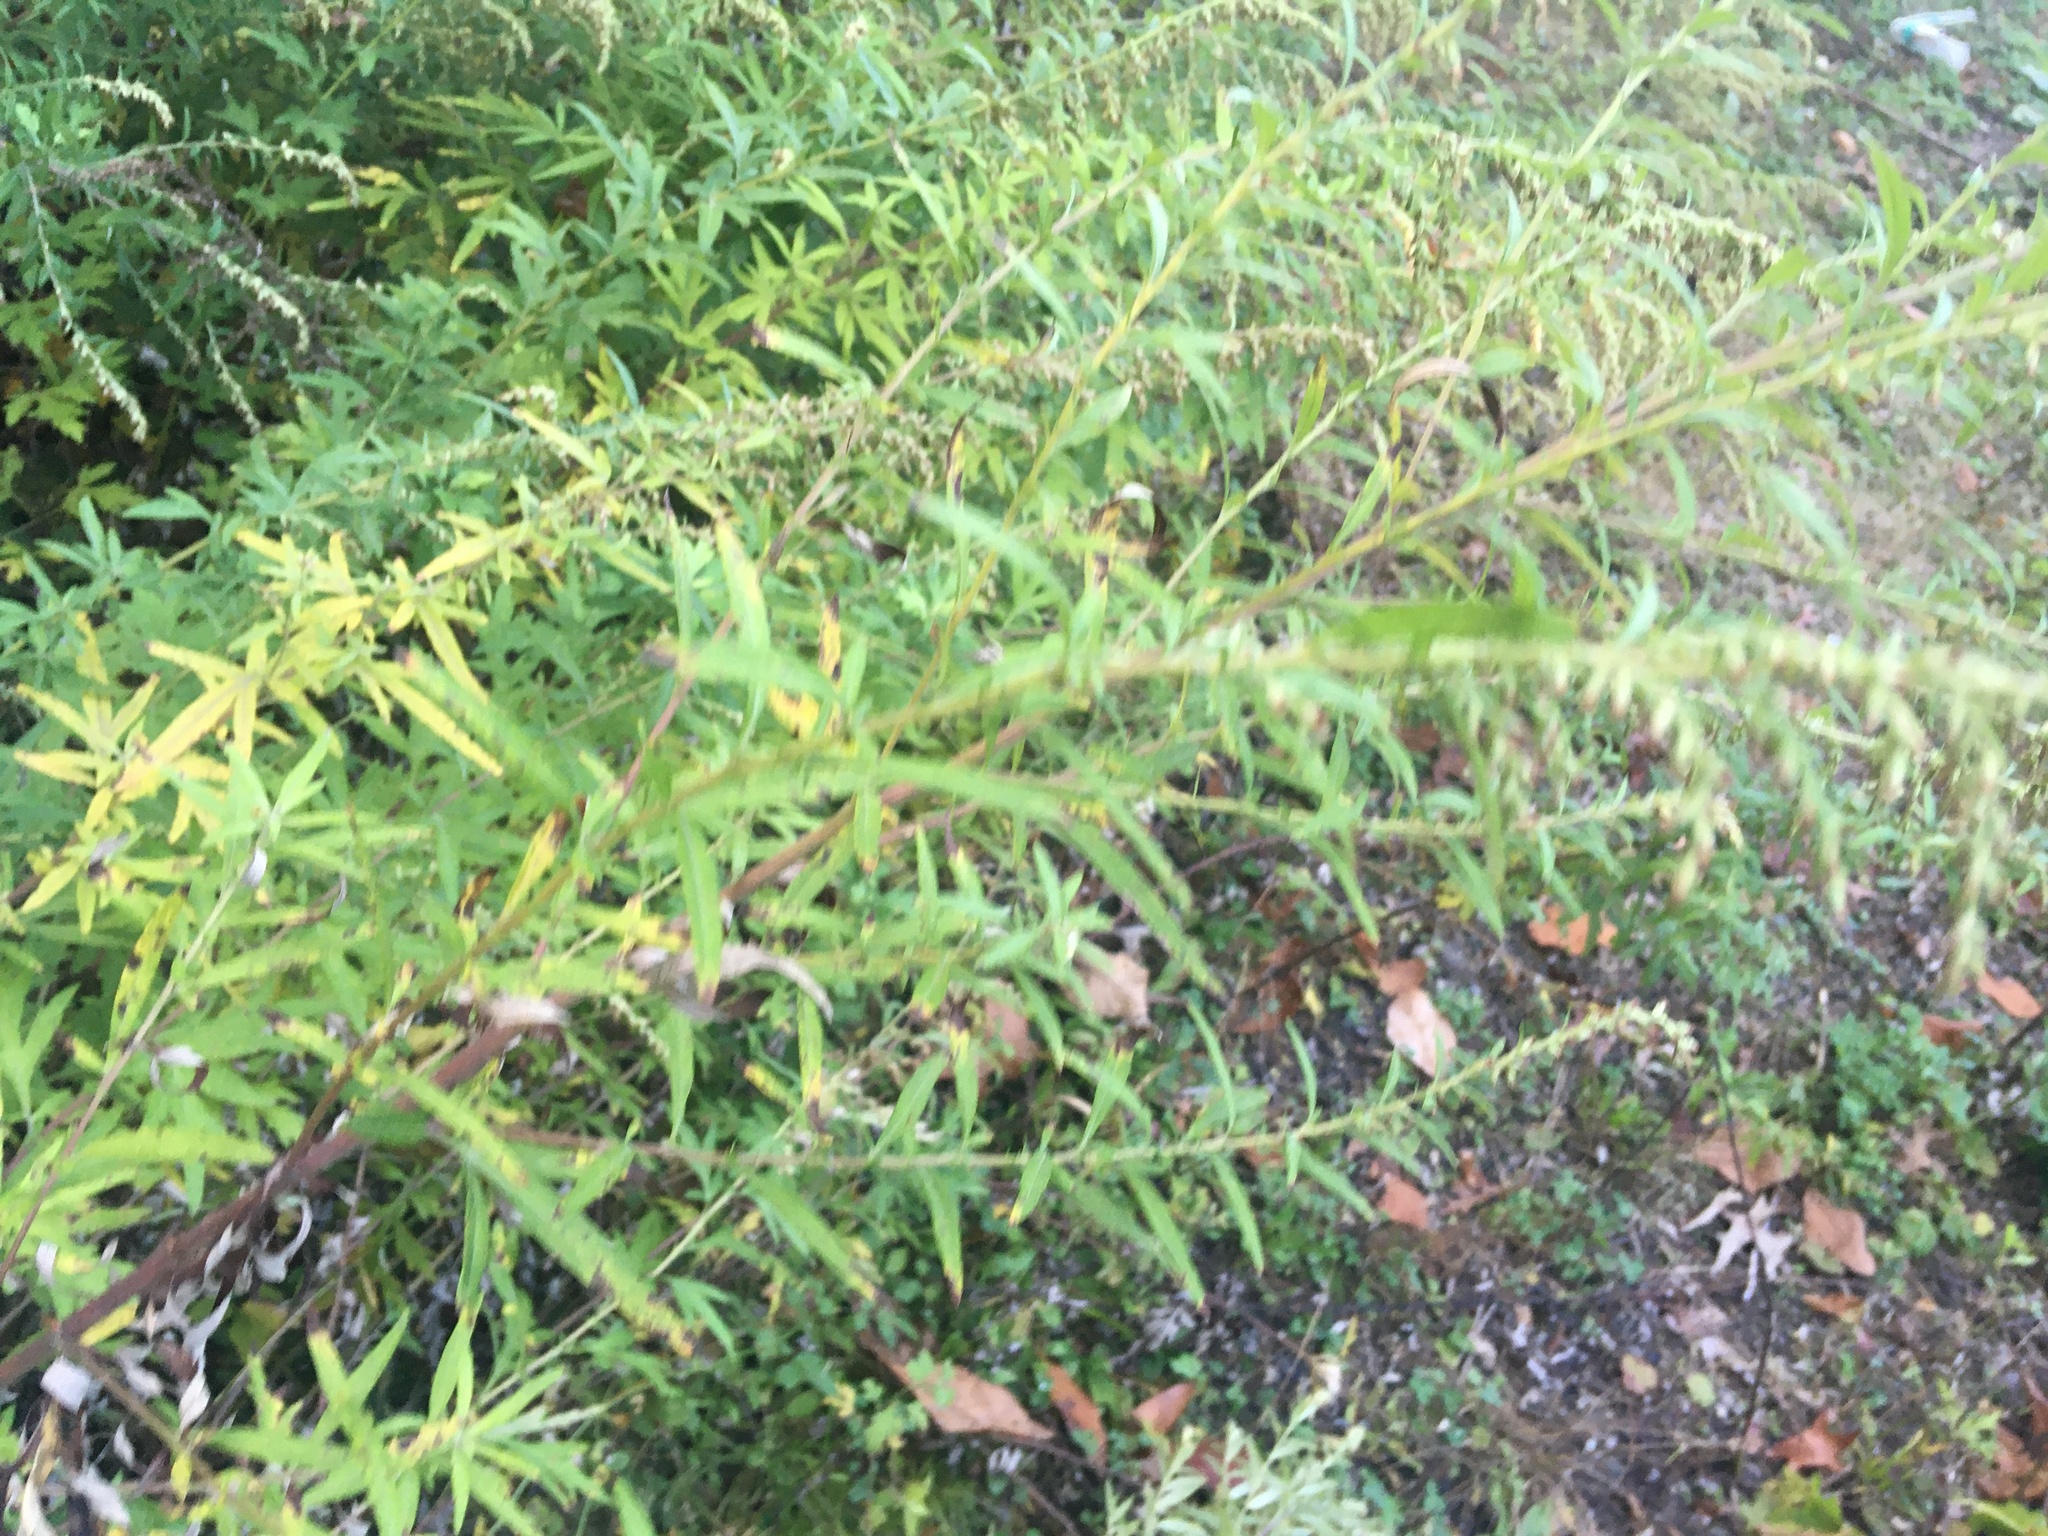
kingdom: Plantae
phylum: Tracheophyta
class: Magnoliopsida
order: Asterales
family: Asteraceae
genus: Artemisia
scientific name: Artemisia vulgaris
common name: Mugwort
